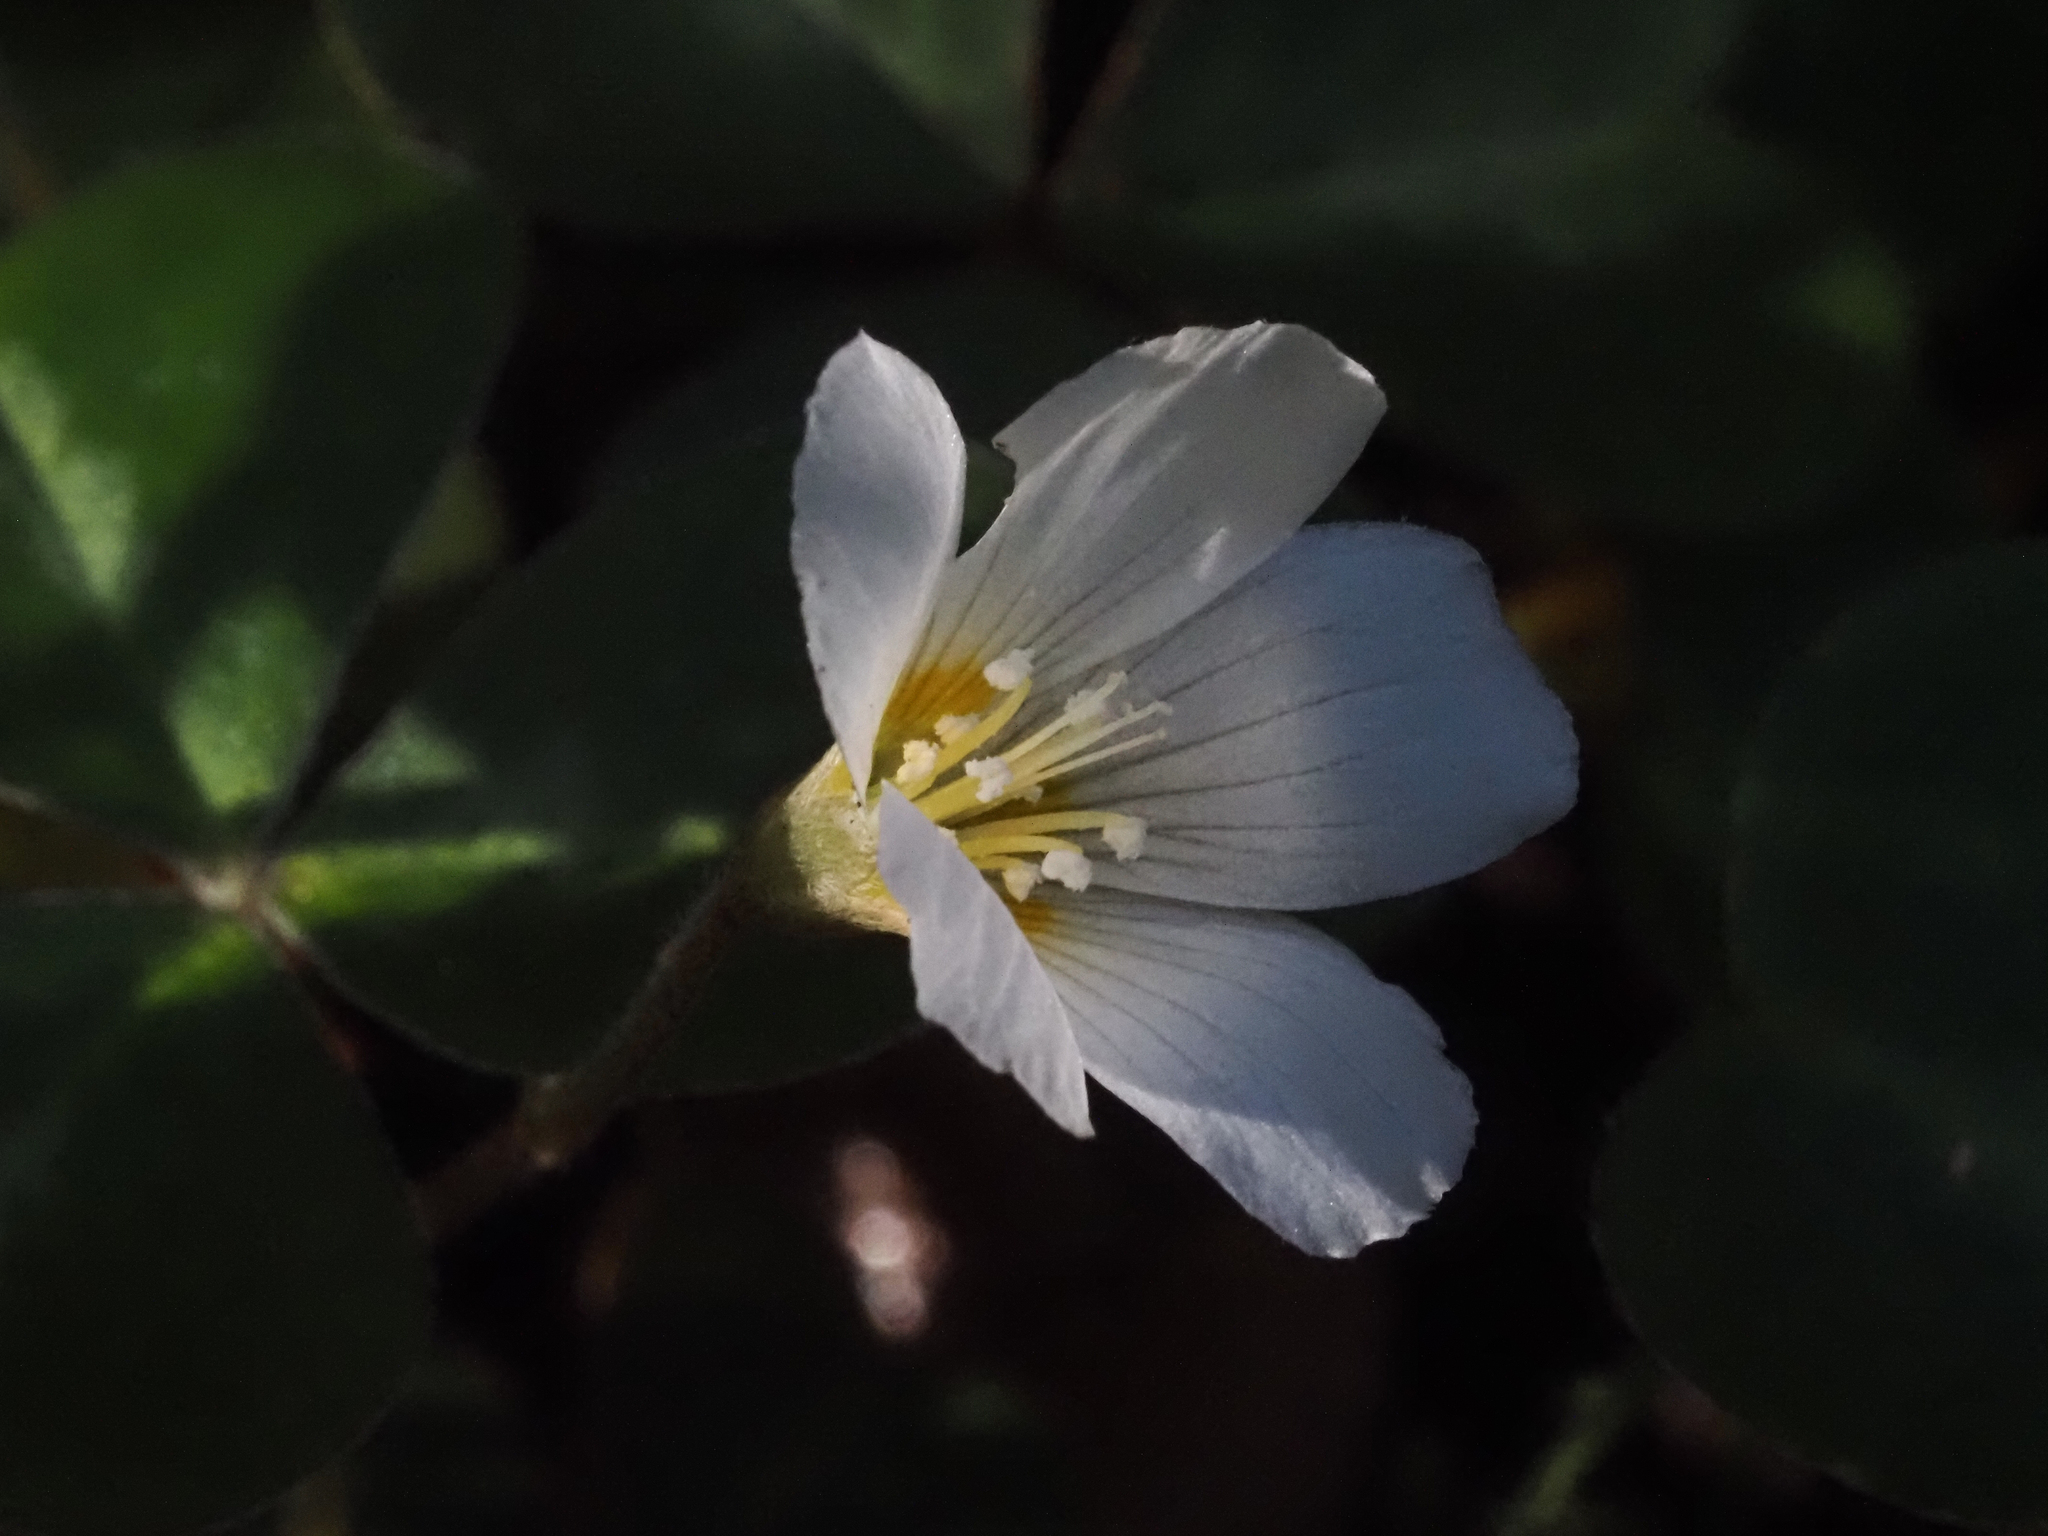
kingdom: Plantae
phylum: Tracheophyta
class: Magnoliopsida
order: Oxalidales
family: Oxalidaceae
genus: Oxalis
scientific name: Oxalis oregana
